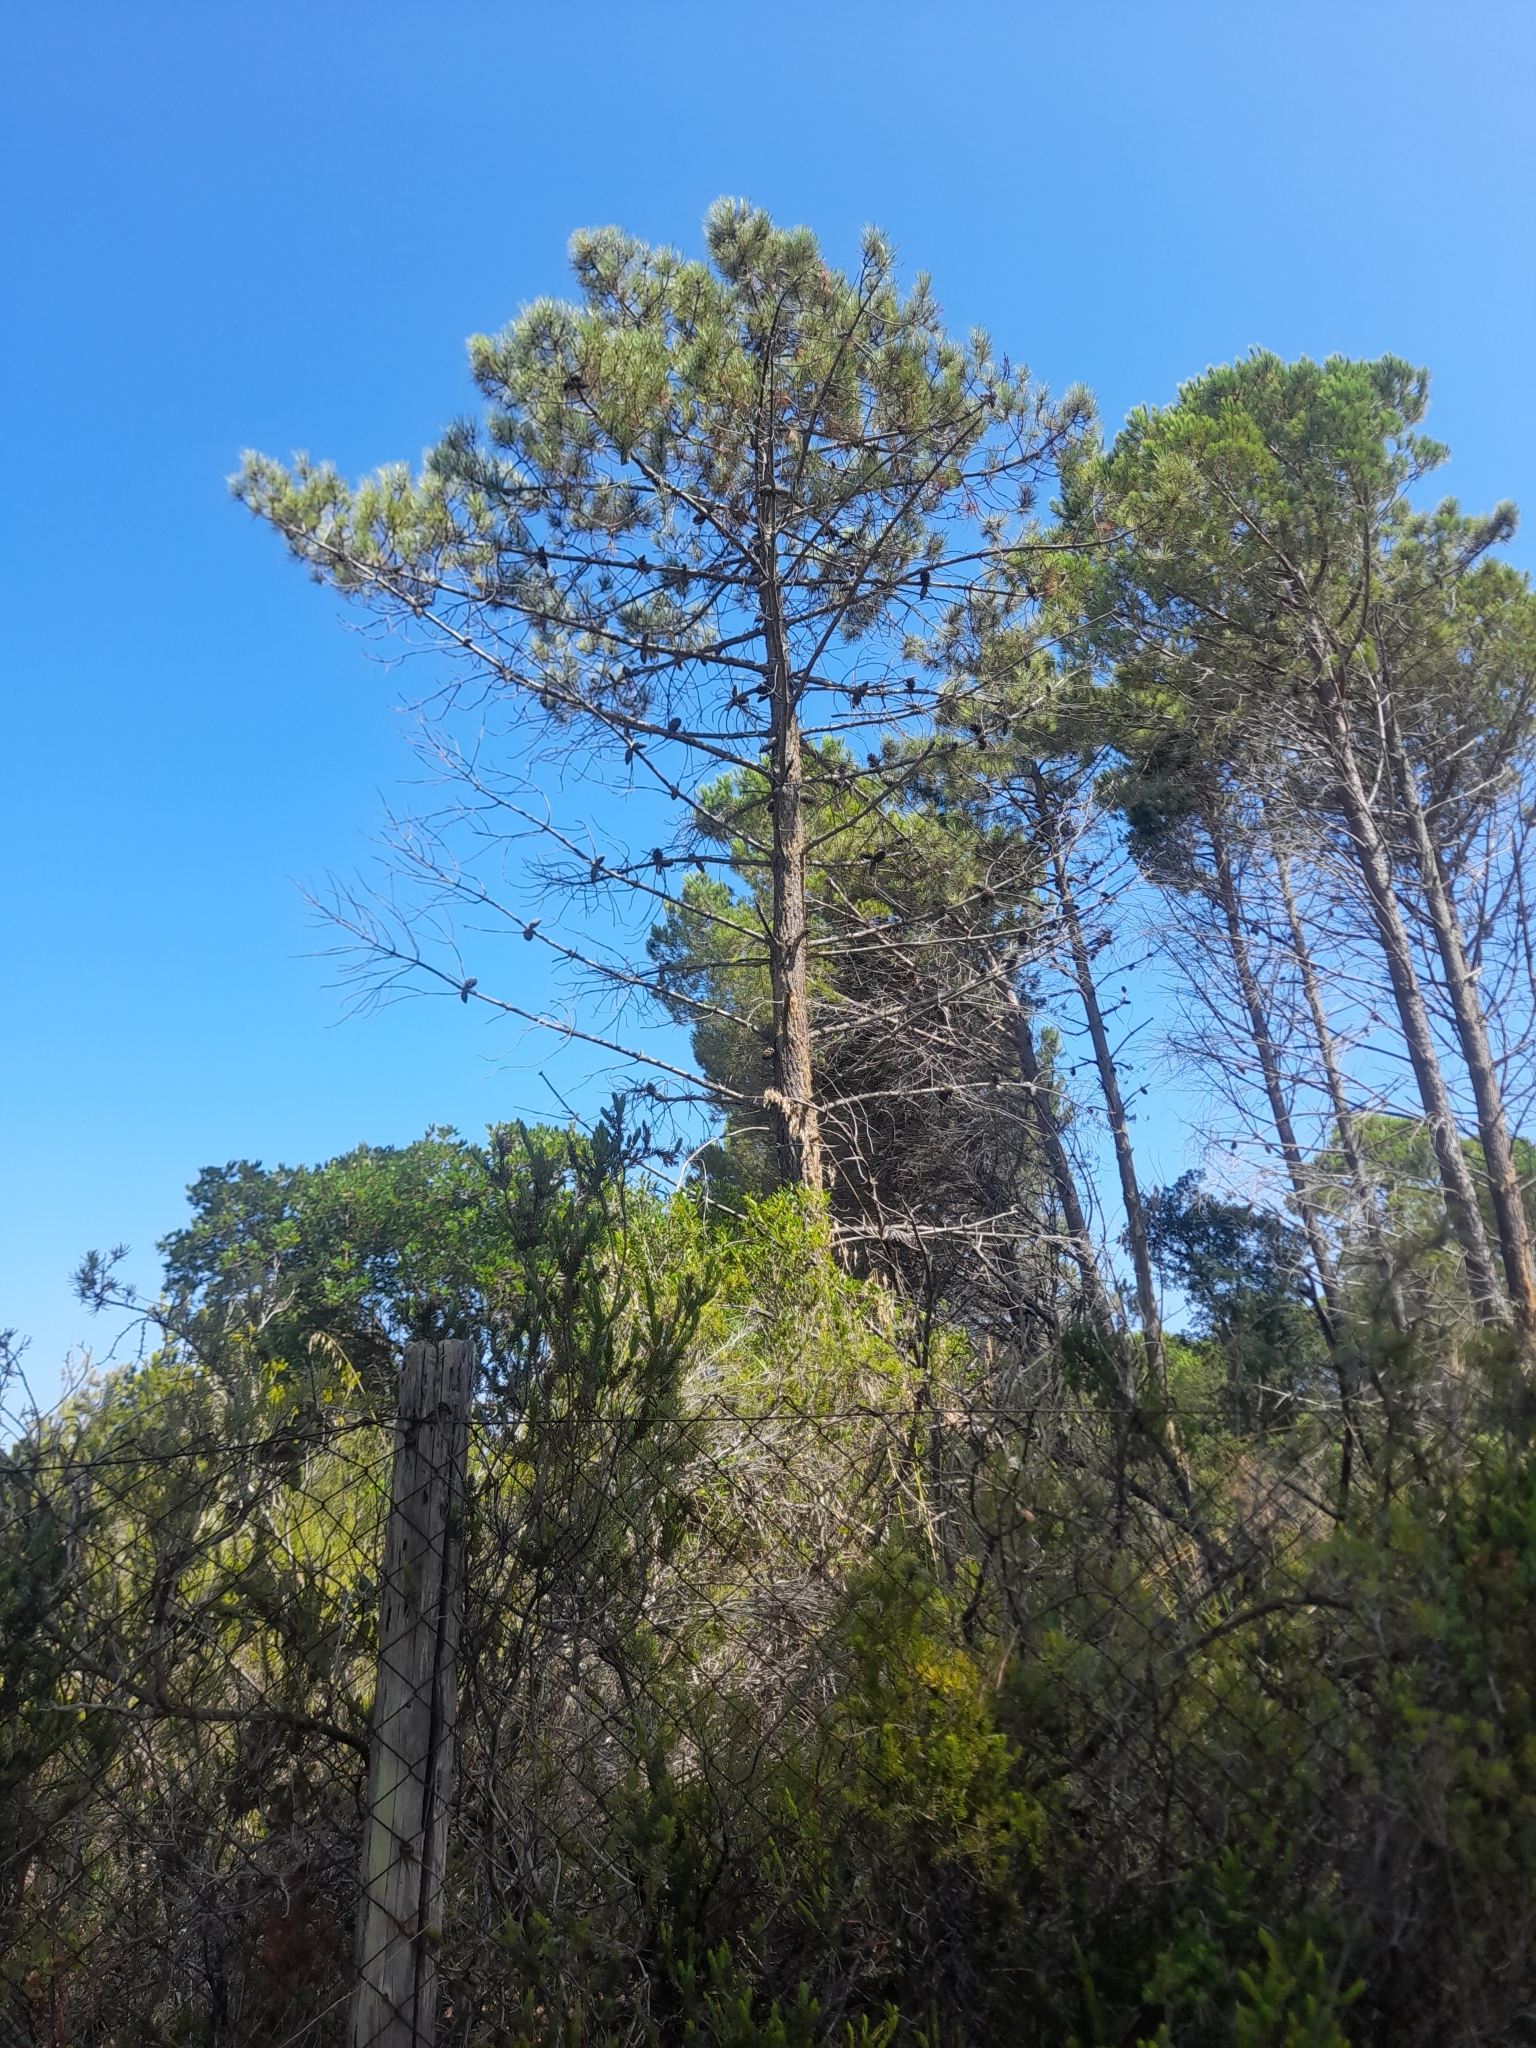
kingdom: Plantae
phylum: Tracheophyta
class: Pinopsida
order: Pinales
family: Pinaceae
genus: Pinus
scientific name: Pinus pinaster
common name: Maritime pine
